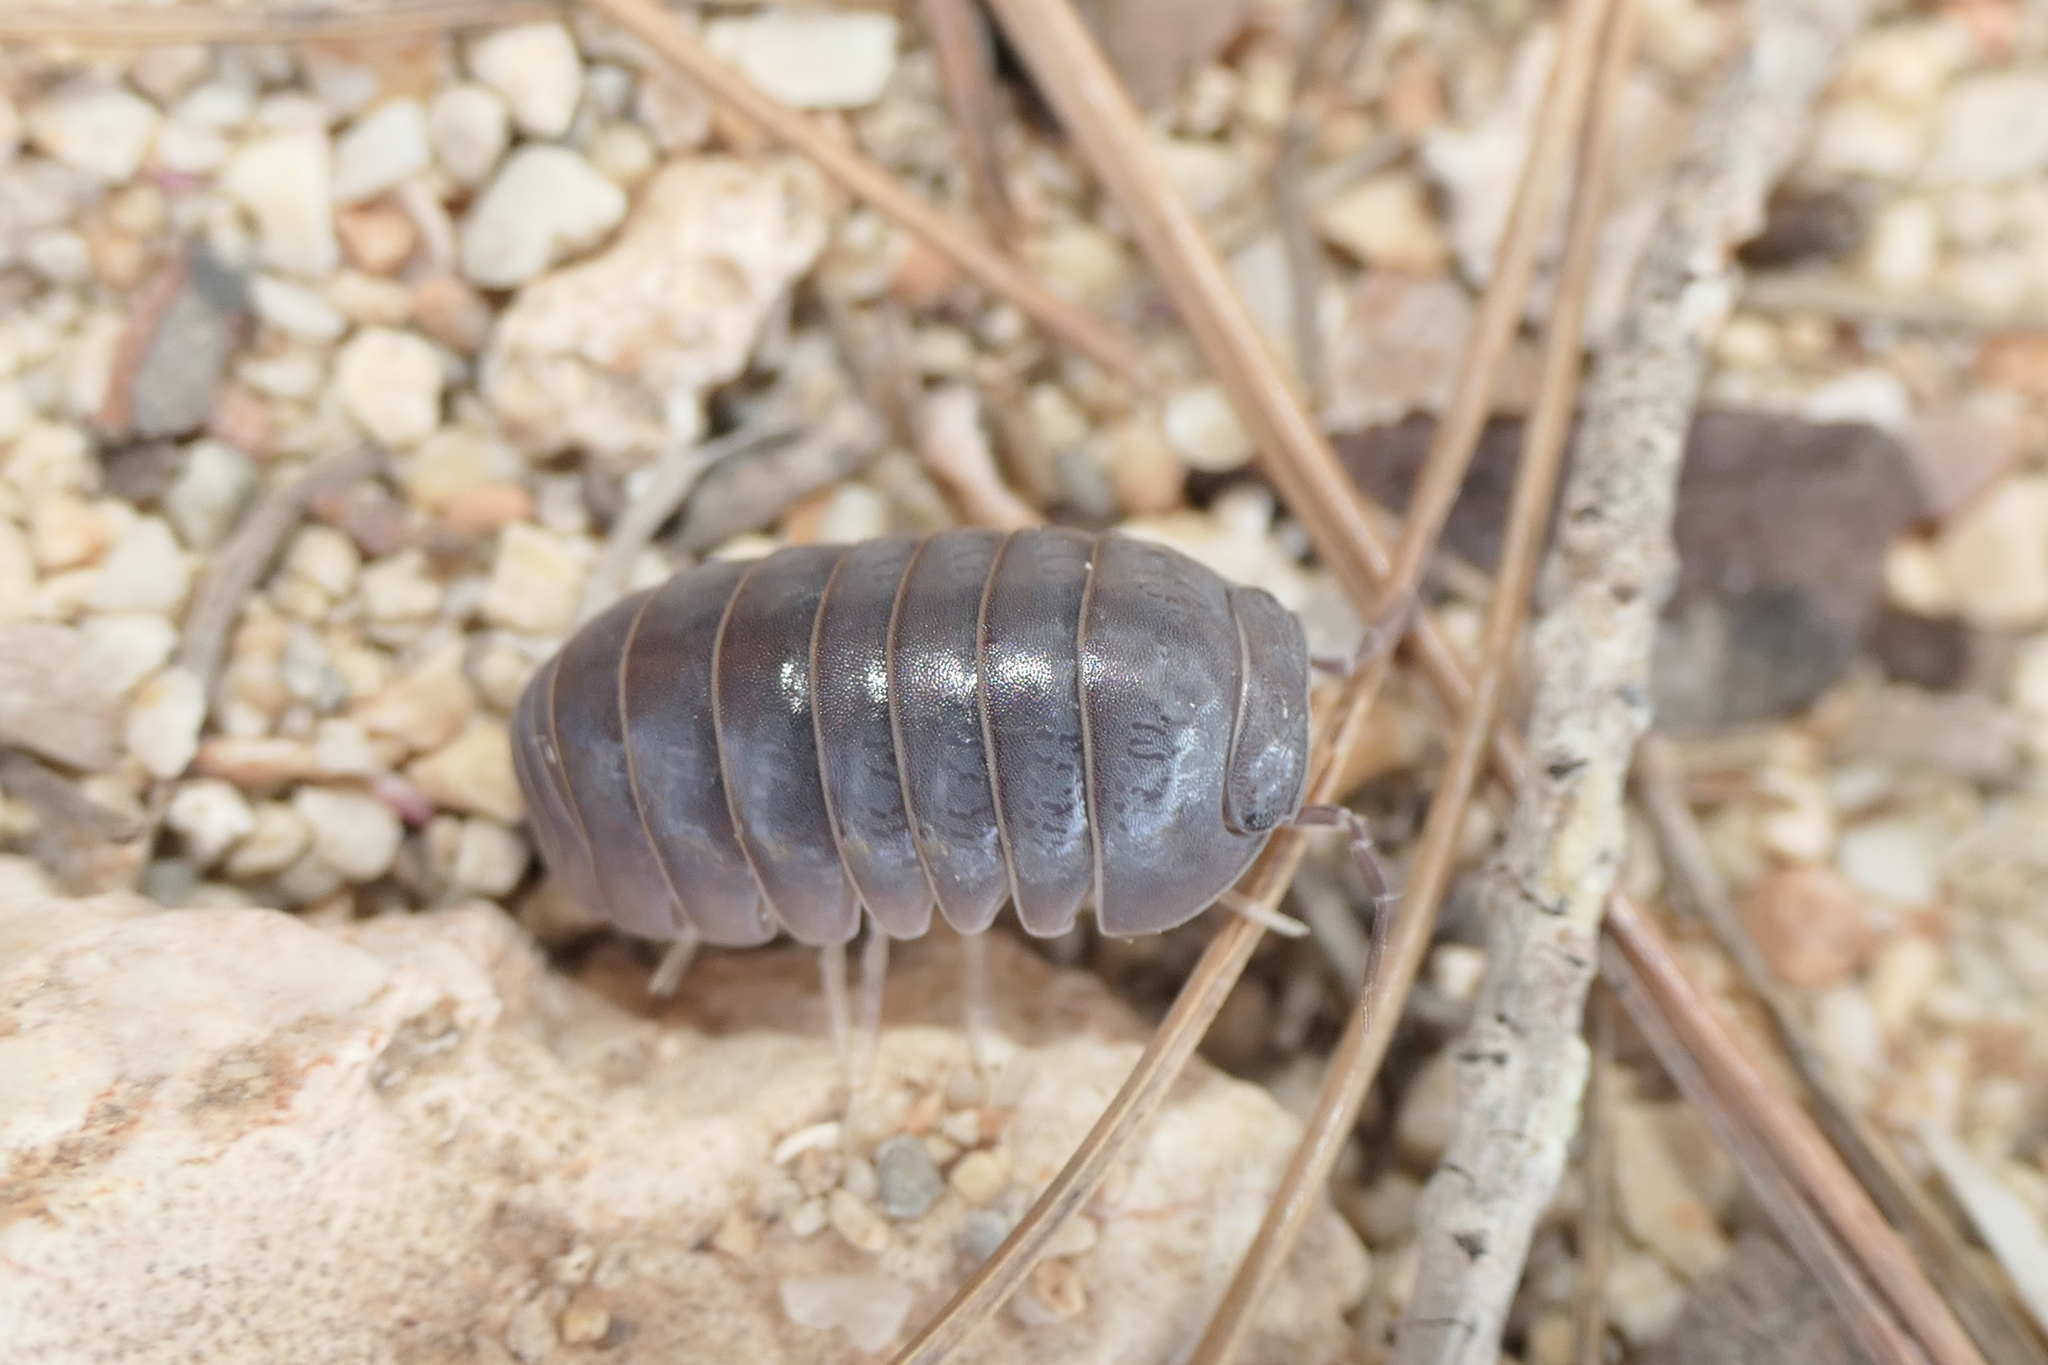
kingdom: Animalia
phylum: Arthropoda
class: Malacostraca
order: Isopoda
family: Armadillidae
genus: Armadillo
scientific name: Armadillo officinalis
